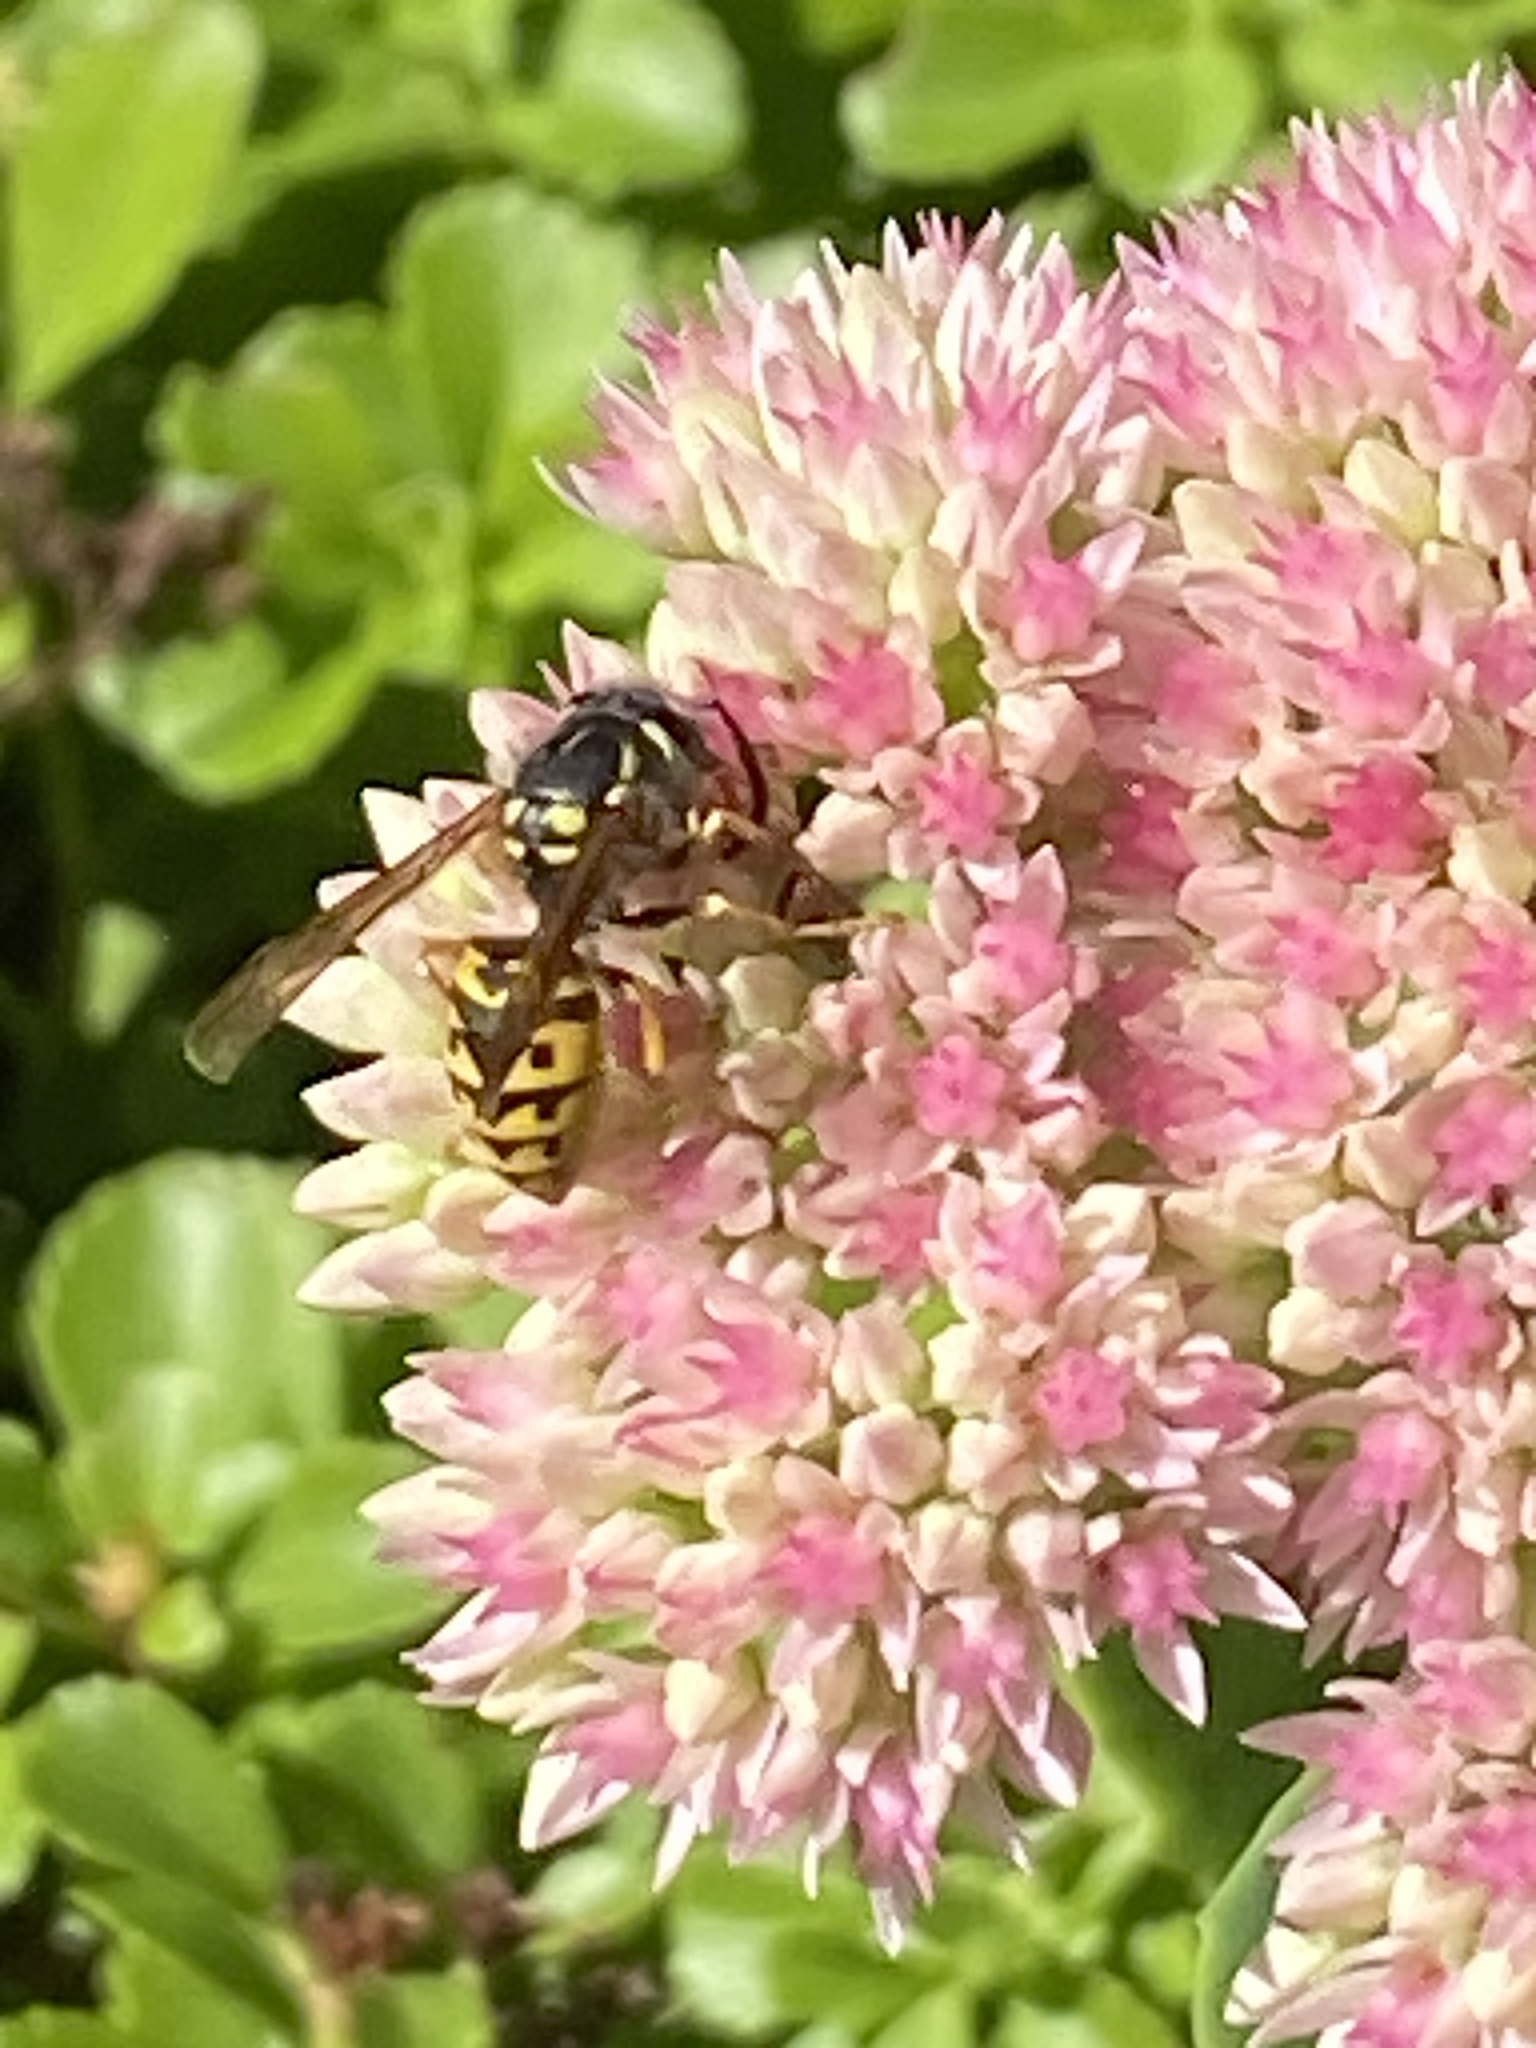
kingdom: Animalia
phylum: Arthropoda
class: Insecta
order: Hymenoptera
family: Vespidae
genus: Vespula
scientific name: Vespula germanica
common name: German wasp
